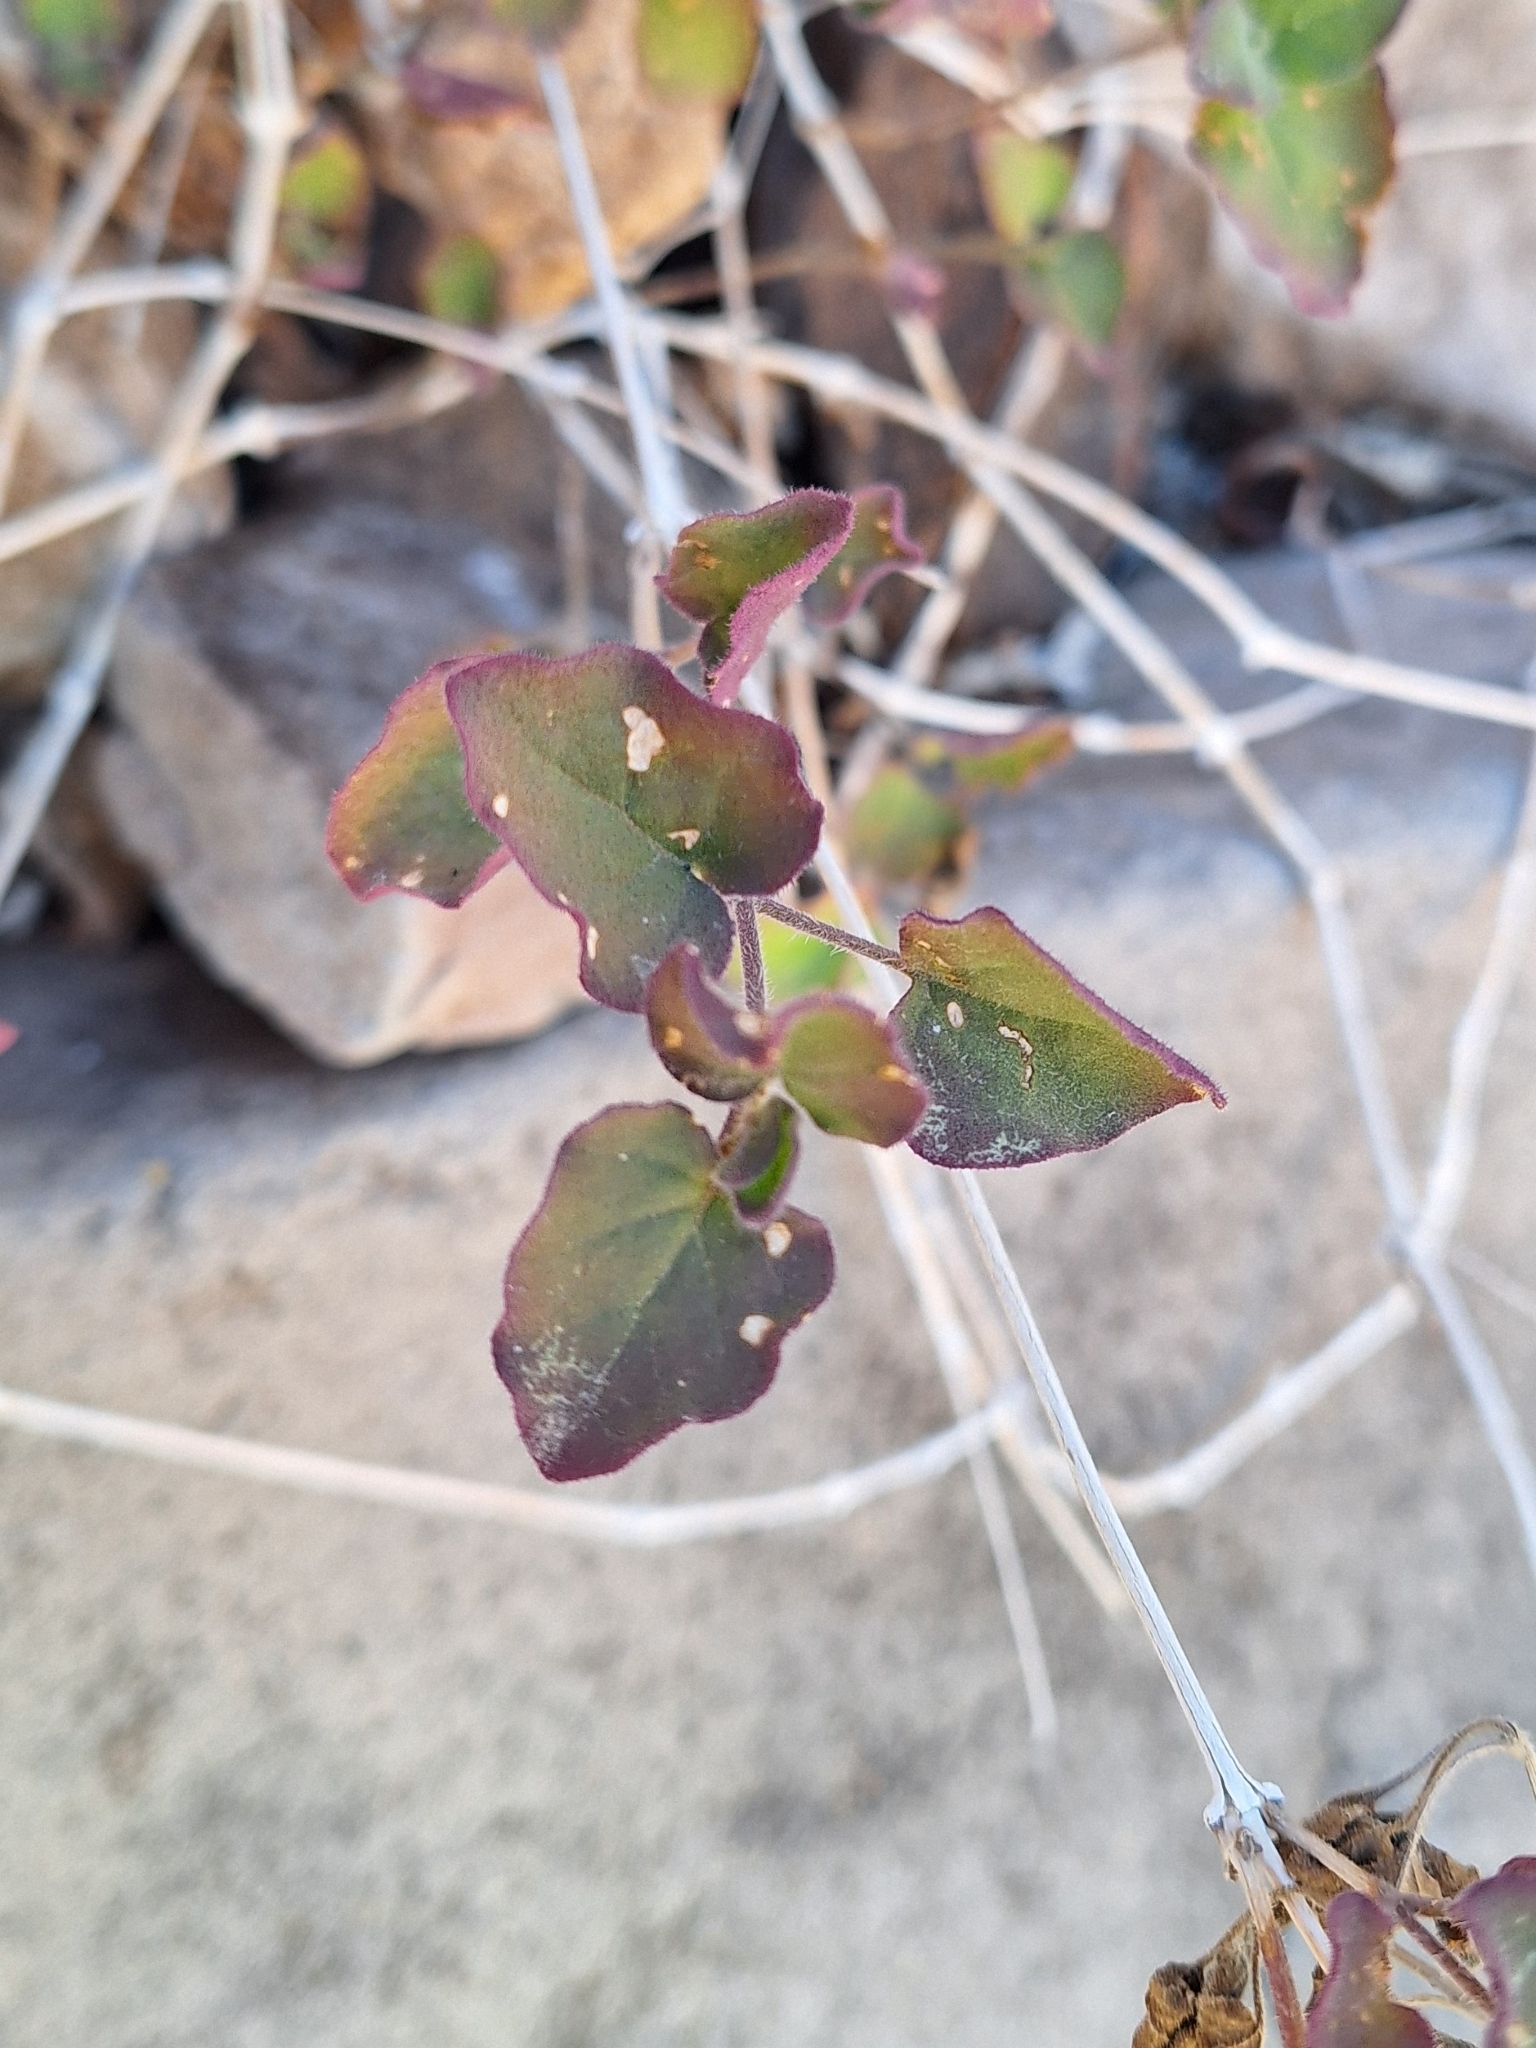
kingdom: Plantae
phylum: Tracheophyta
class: Magnoliopsida
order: Caryophyllales
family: Nyctaginaceae
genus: Boerhavia
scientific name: Boerhavia coccinea
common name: Scarlet spiderling
